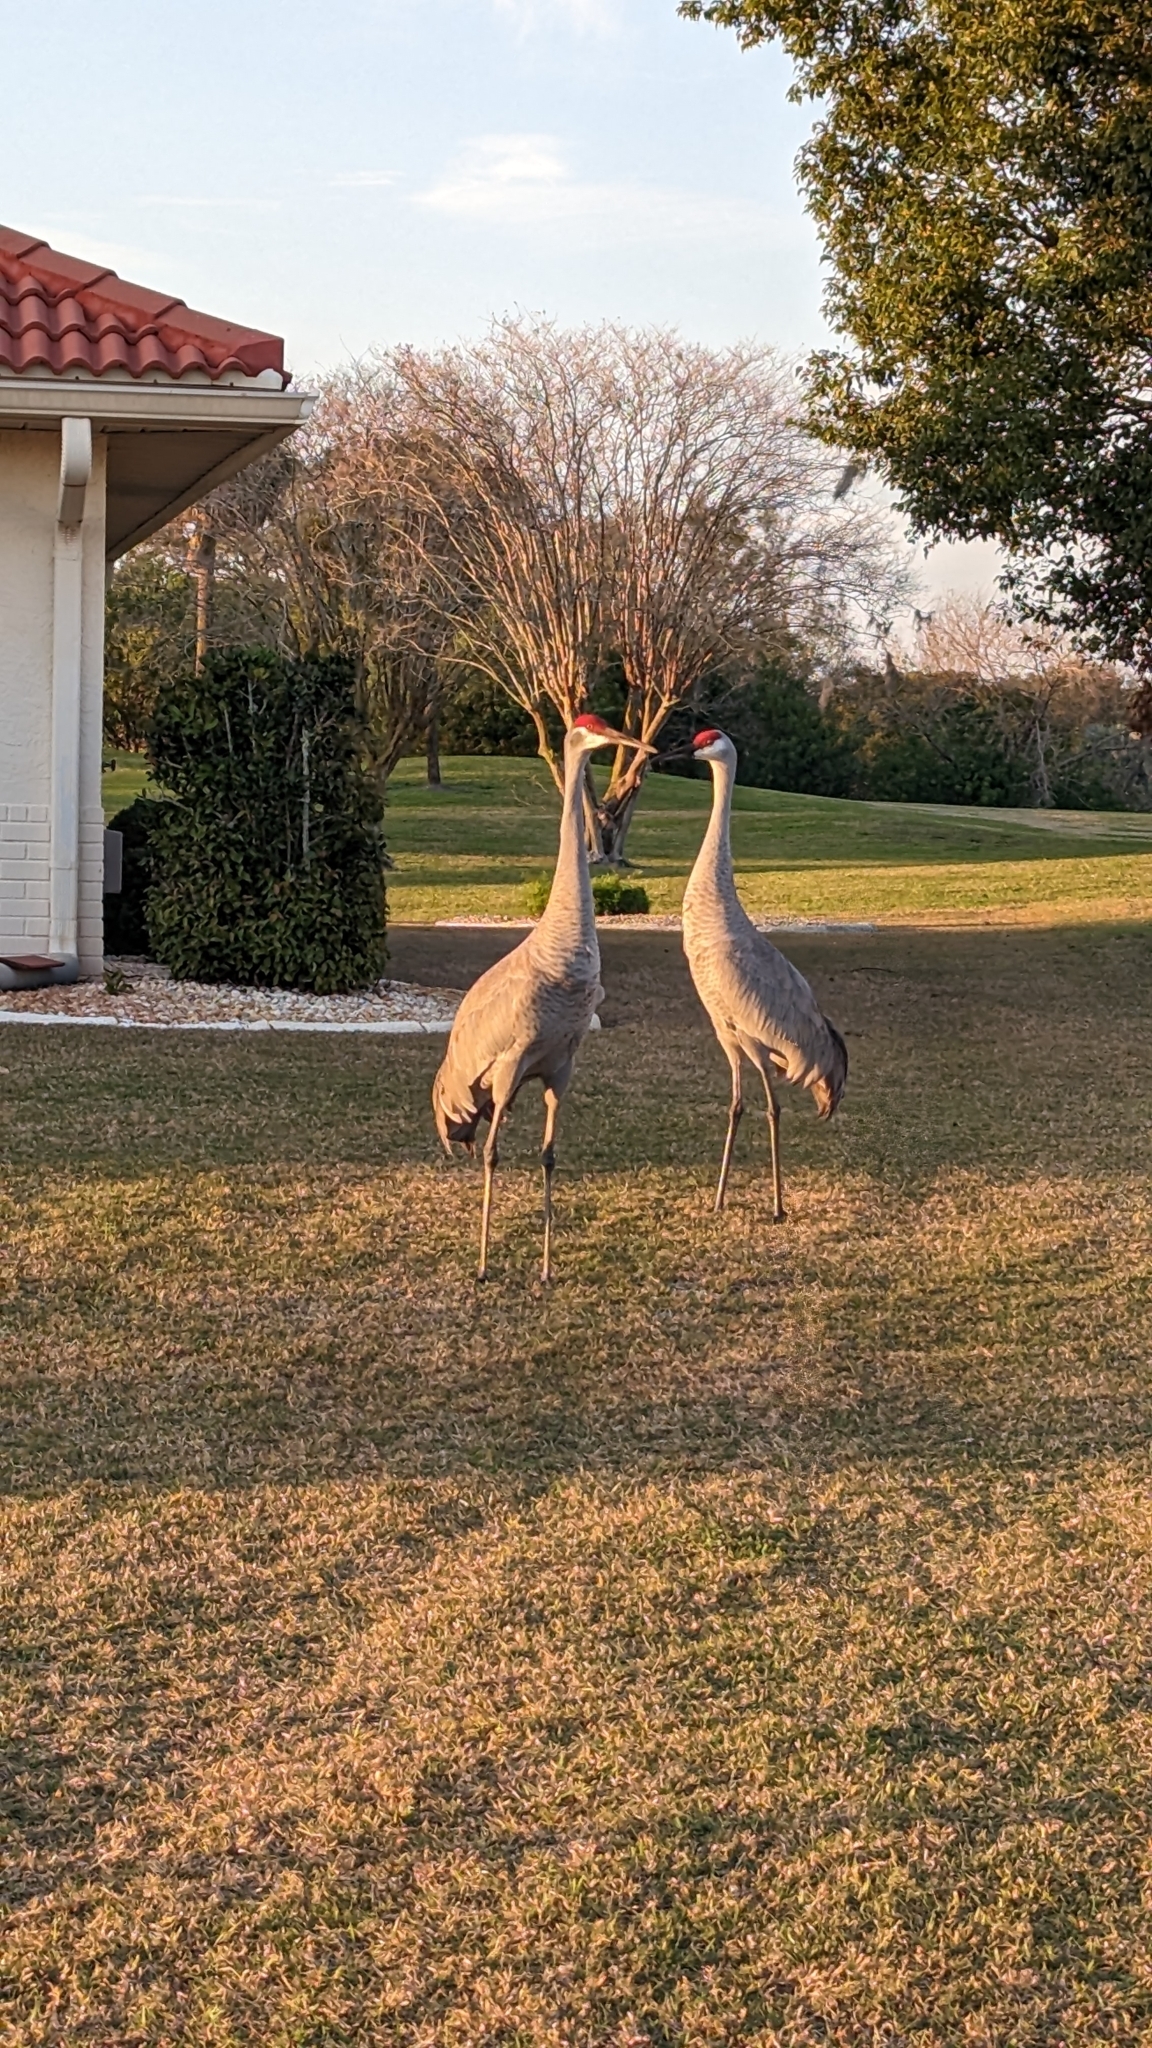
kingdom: Animalia
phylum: Chordata
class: Aves
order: Gruiformes
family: Gruidae
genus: Grus
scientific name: Grus canadensis
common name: Sandhill crane
